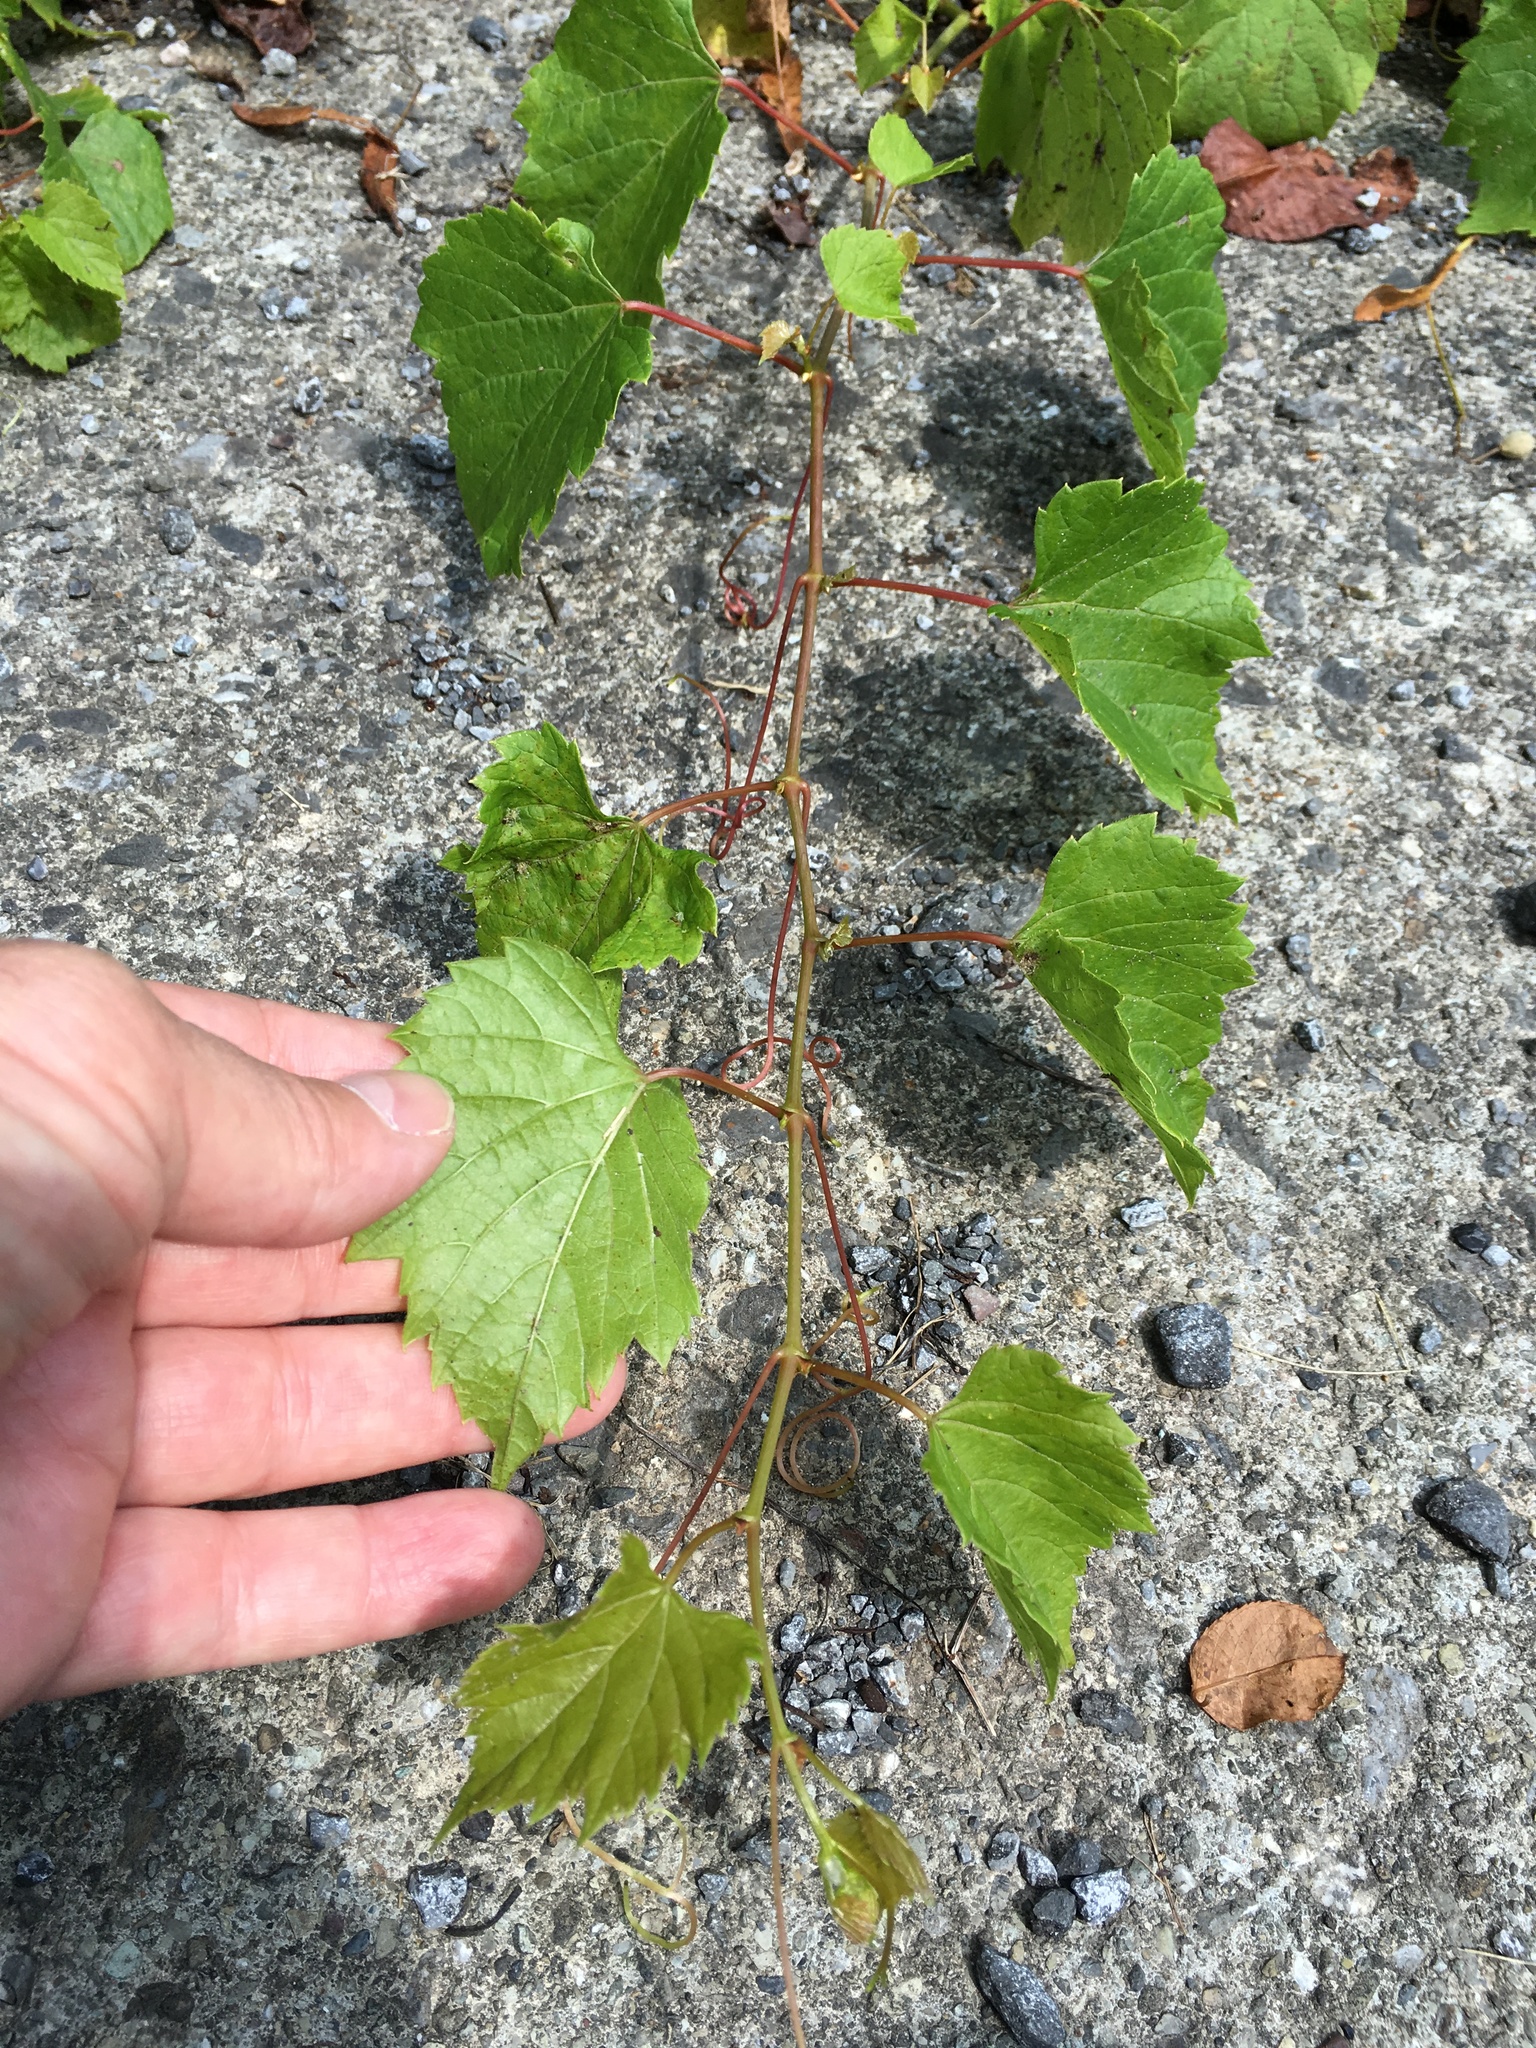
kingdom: Plantae
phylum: Tracheophyta
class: Magnoliopsida
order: Vitales
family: Vitaceae
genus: Vitis
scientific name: Vitis riparia
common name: Frost grape
